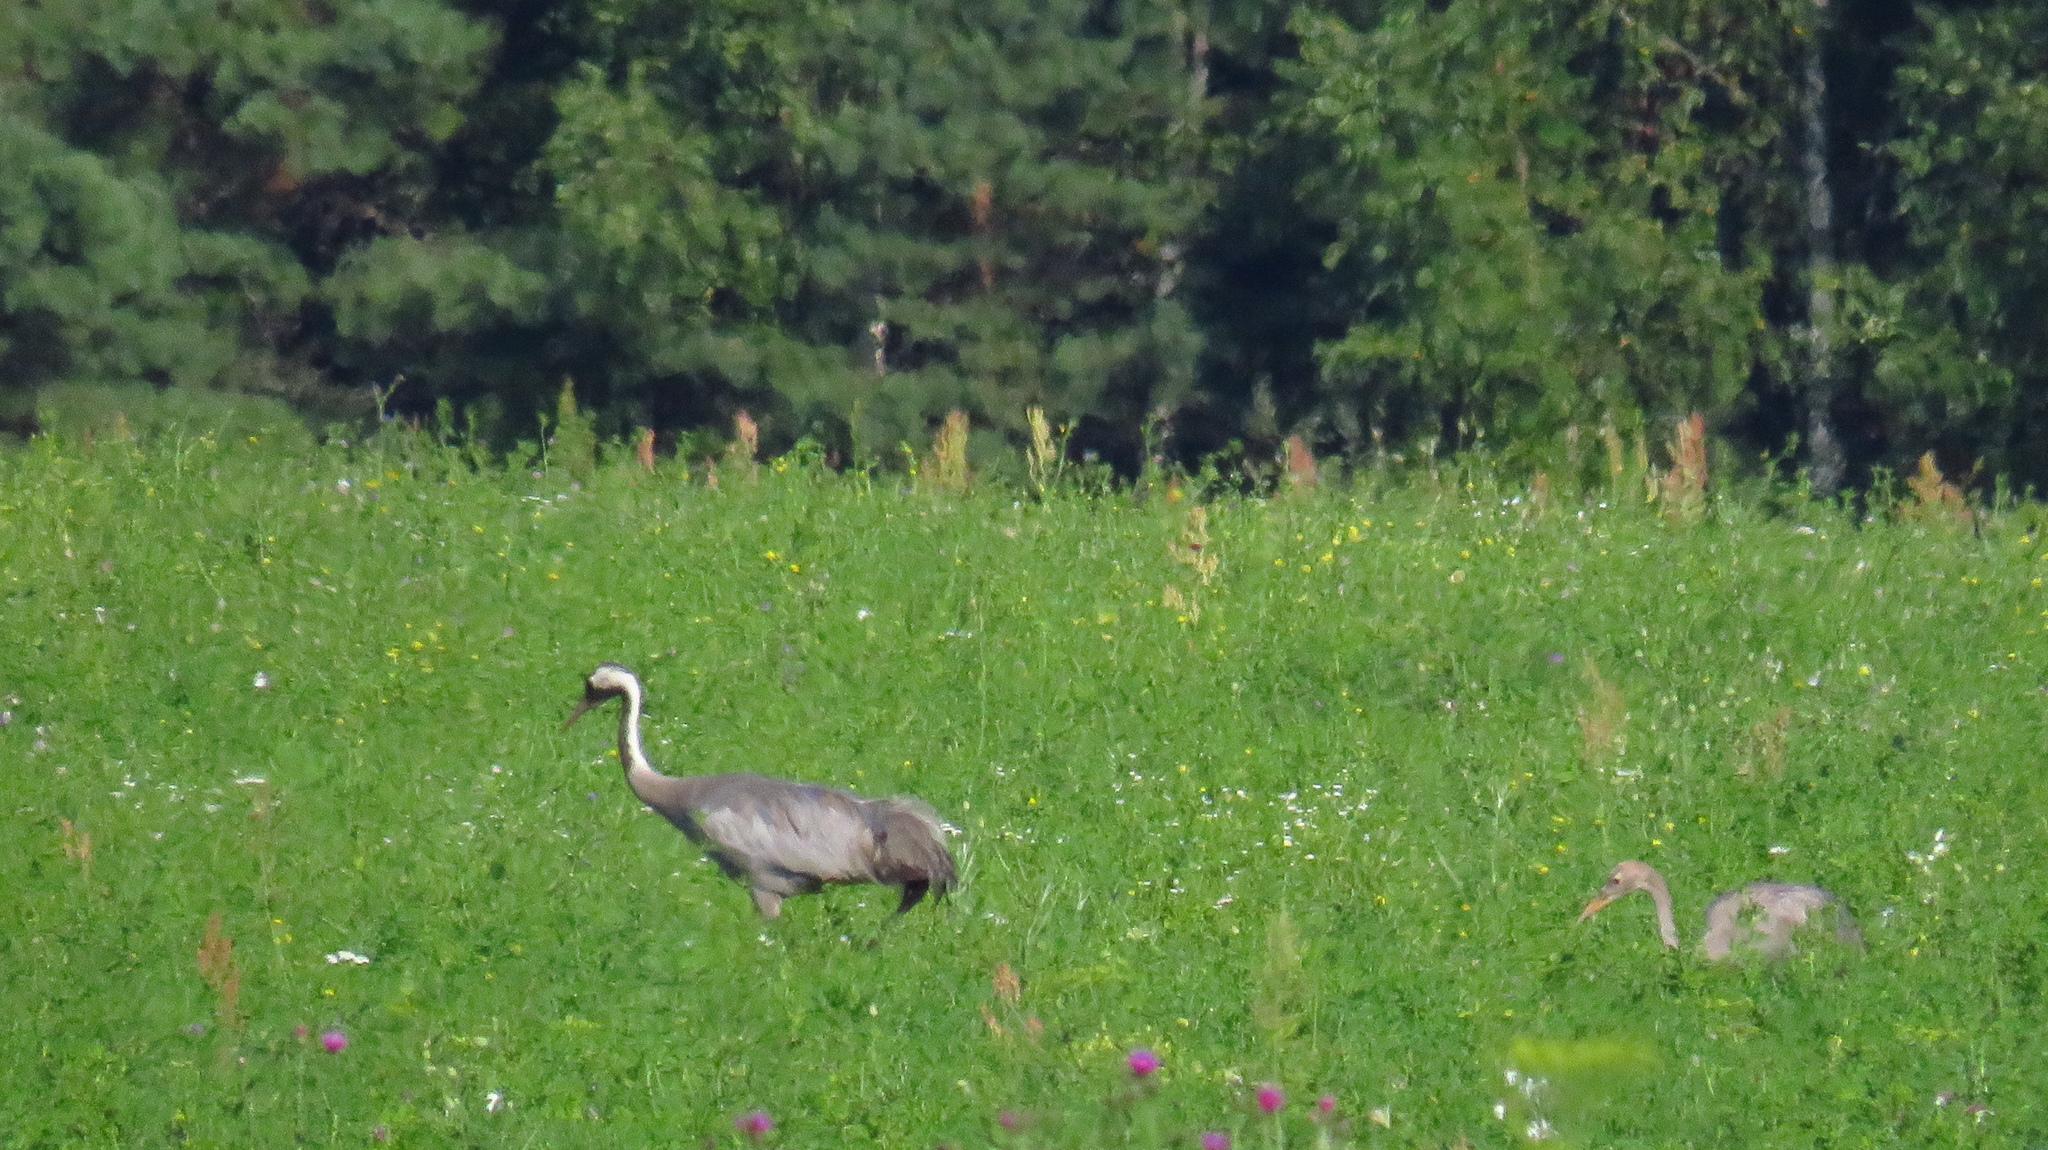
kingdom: Animalia
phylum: Chordata
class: Aves
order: Gruiformes
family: Gruidae
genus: Grus
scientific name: Grus grus
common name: Common crane
